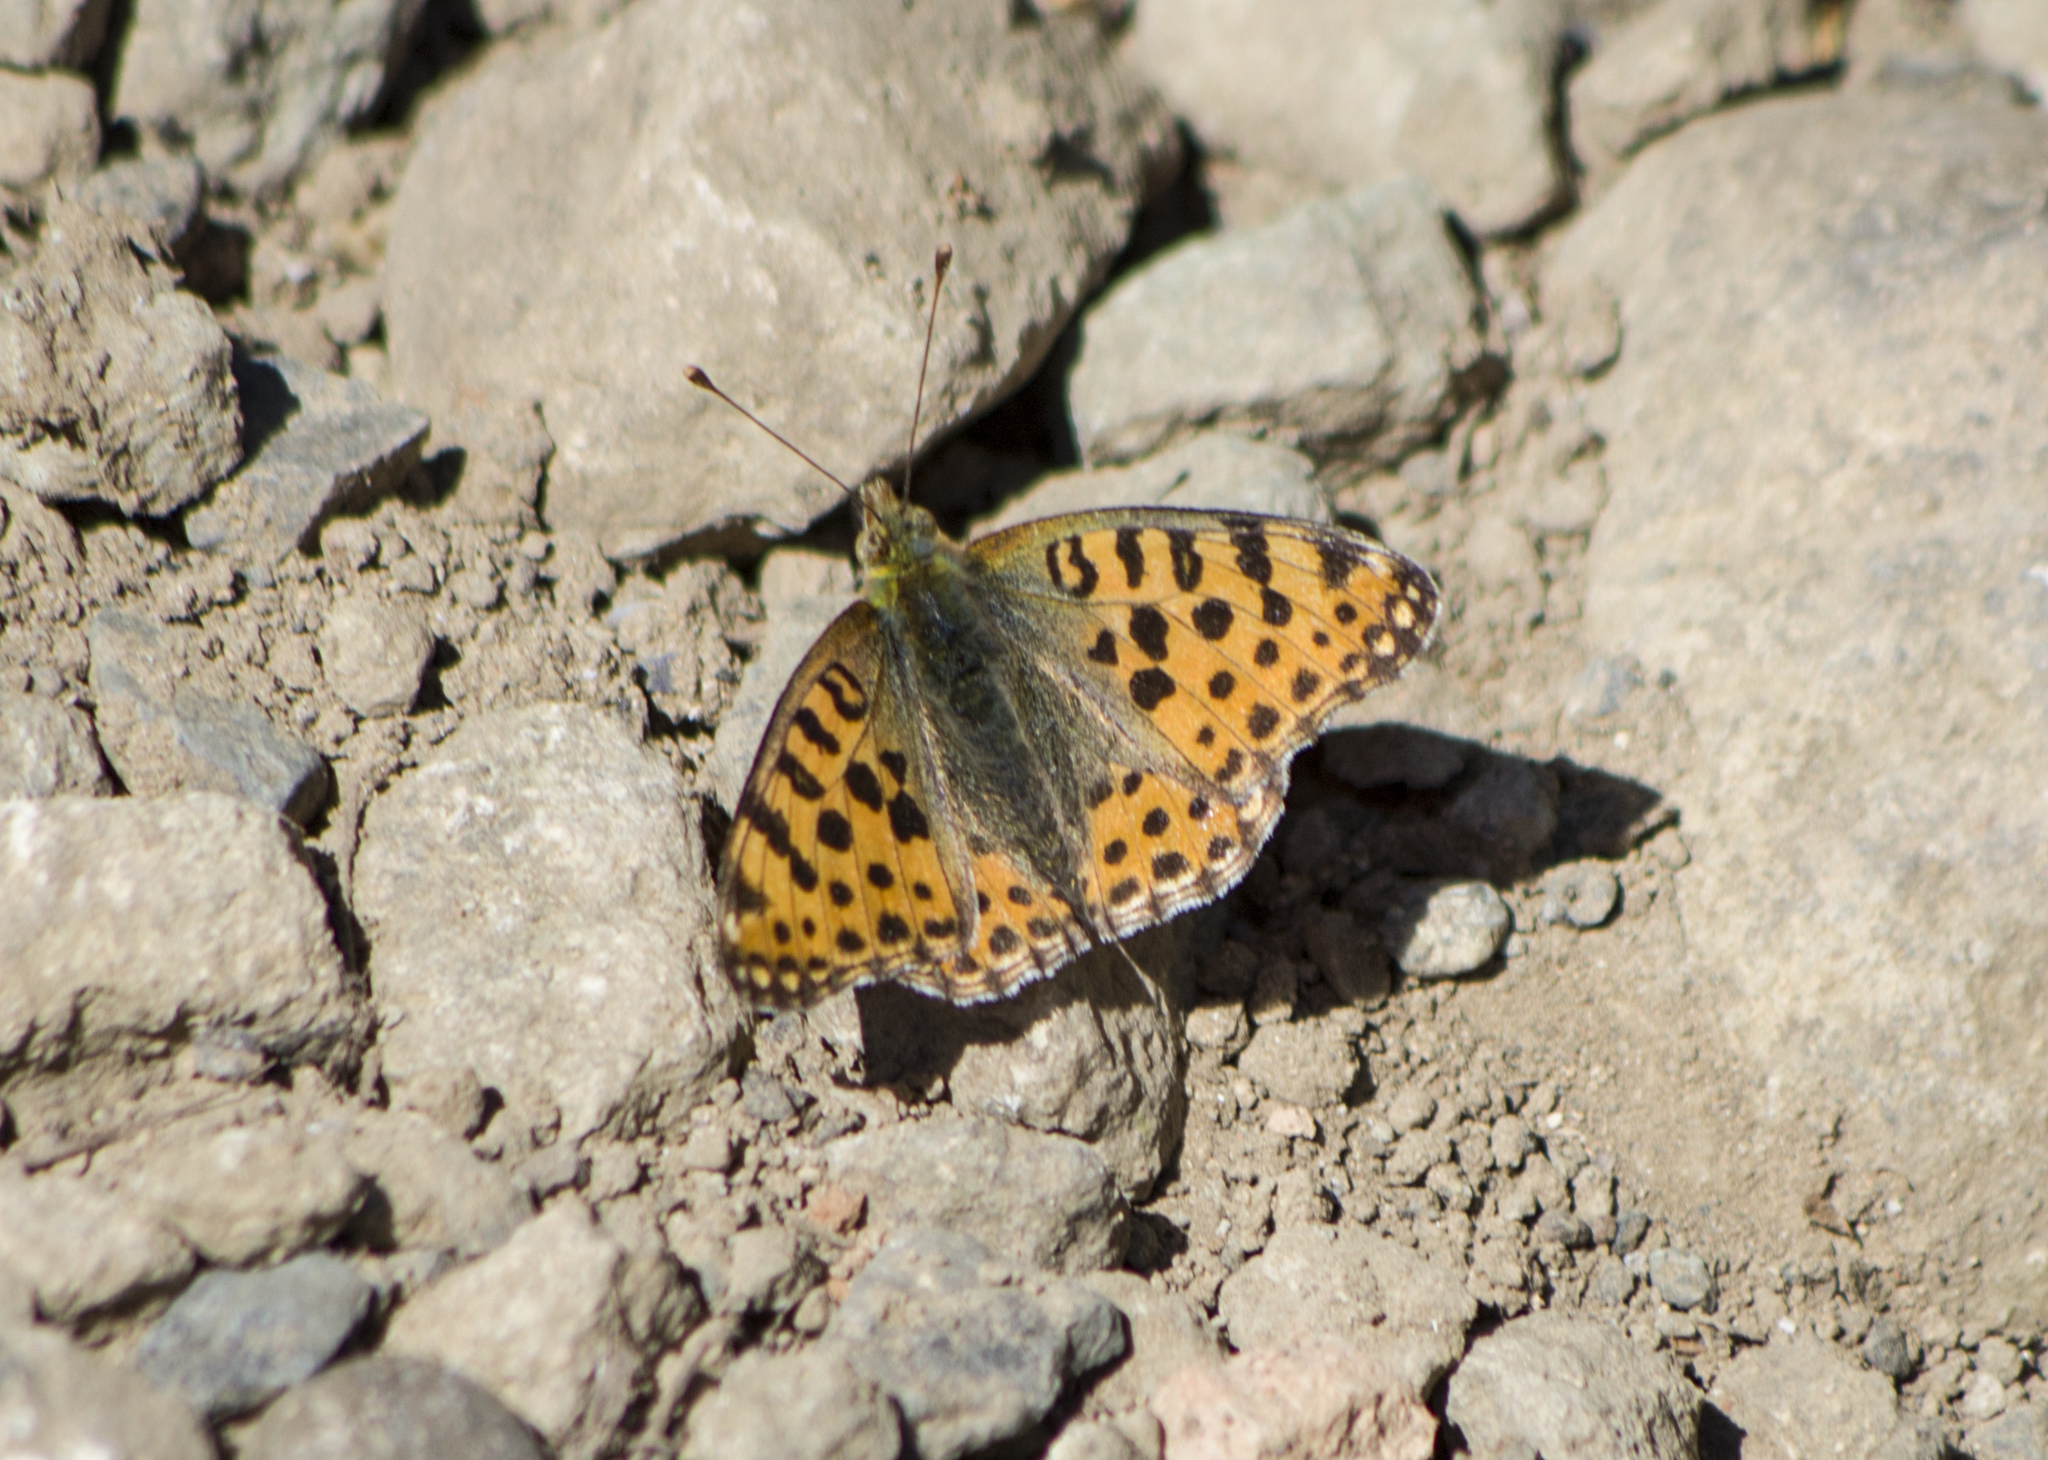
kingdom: Animalia
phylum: Arthropoda
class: Insecta
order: Lepidoptera
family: Nymphalidae
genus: Issoria
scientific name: Issoria lathonia
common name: Queen of spain fritillary
